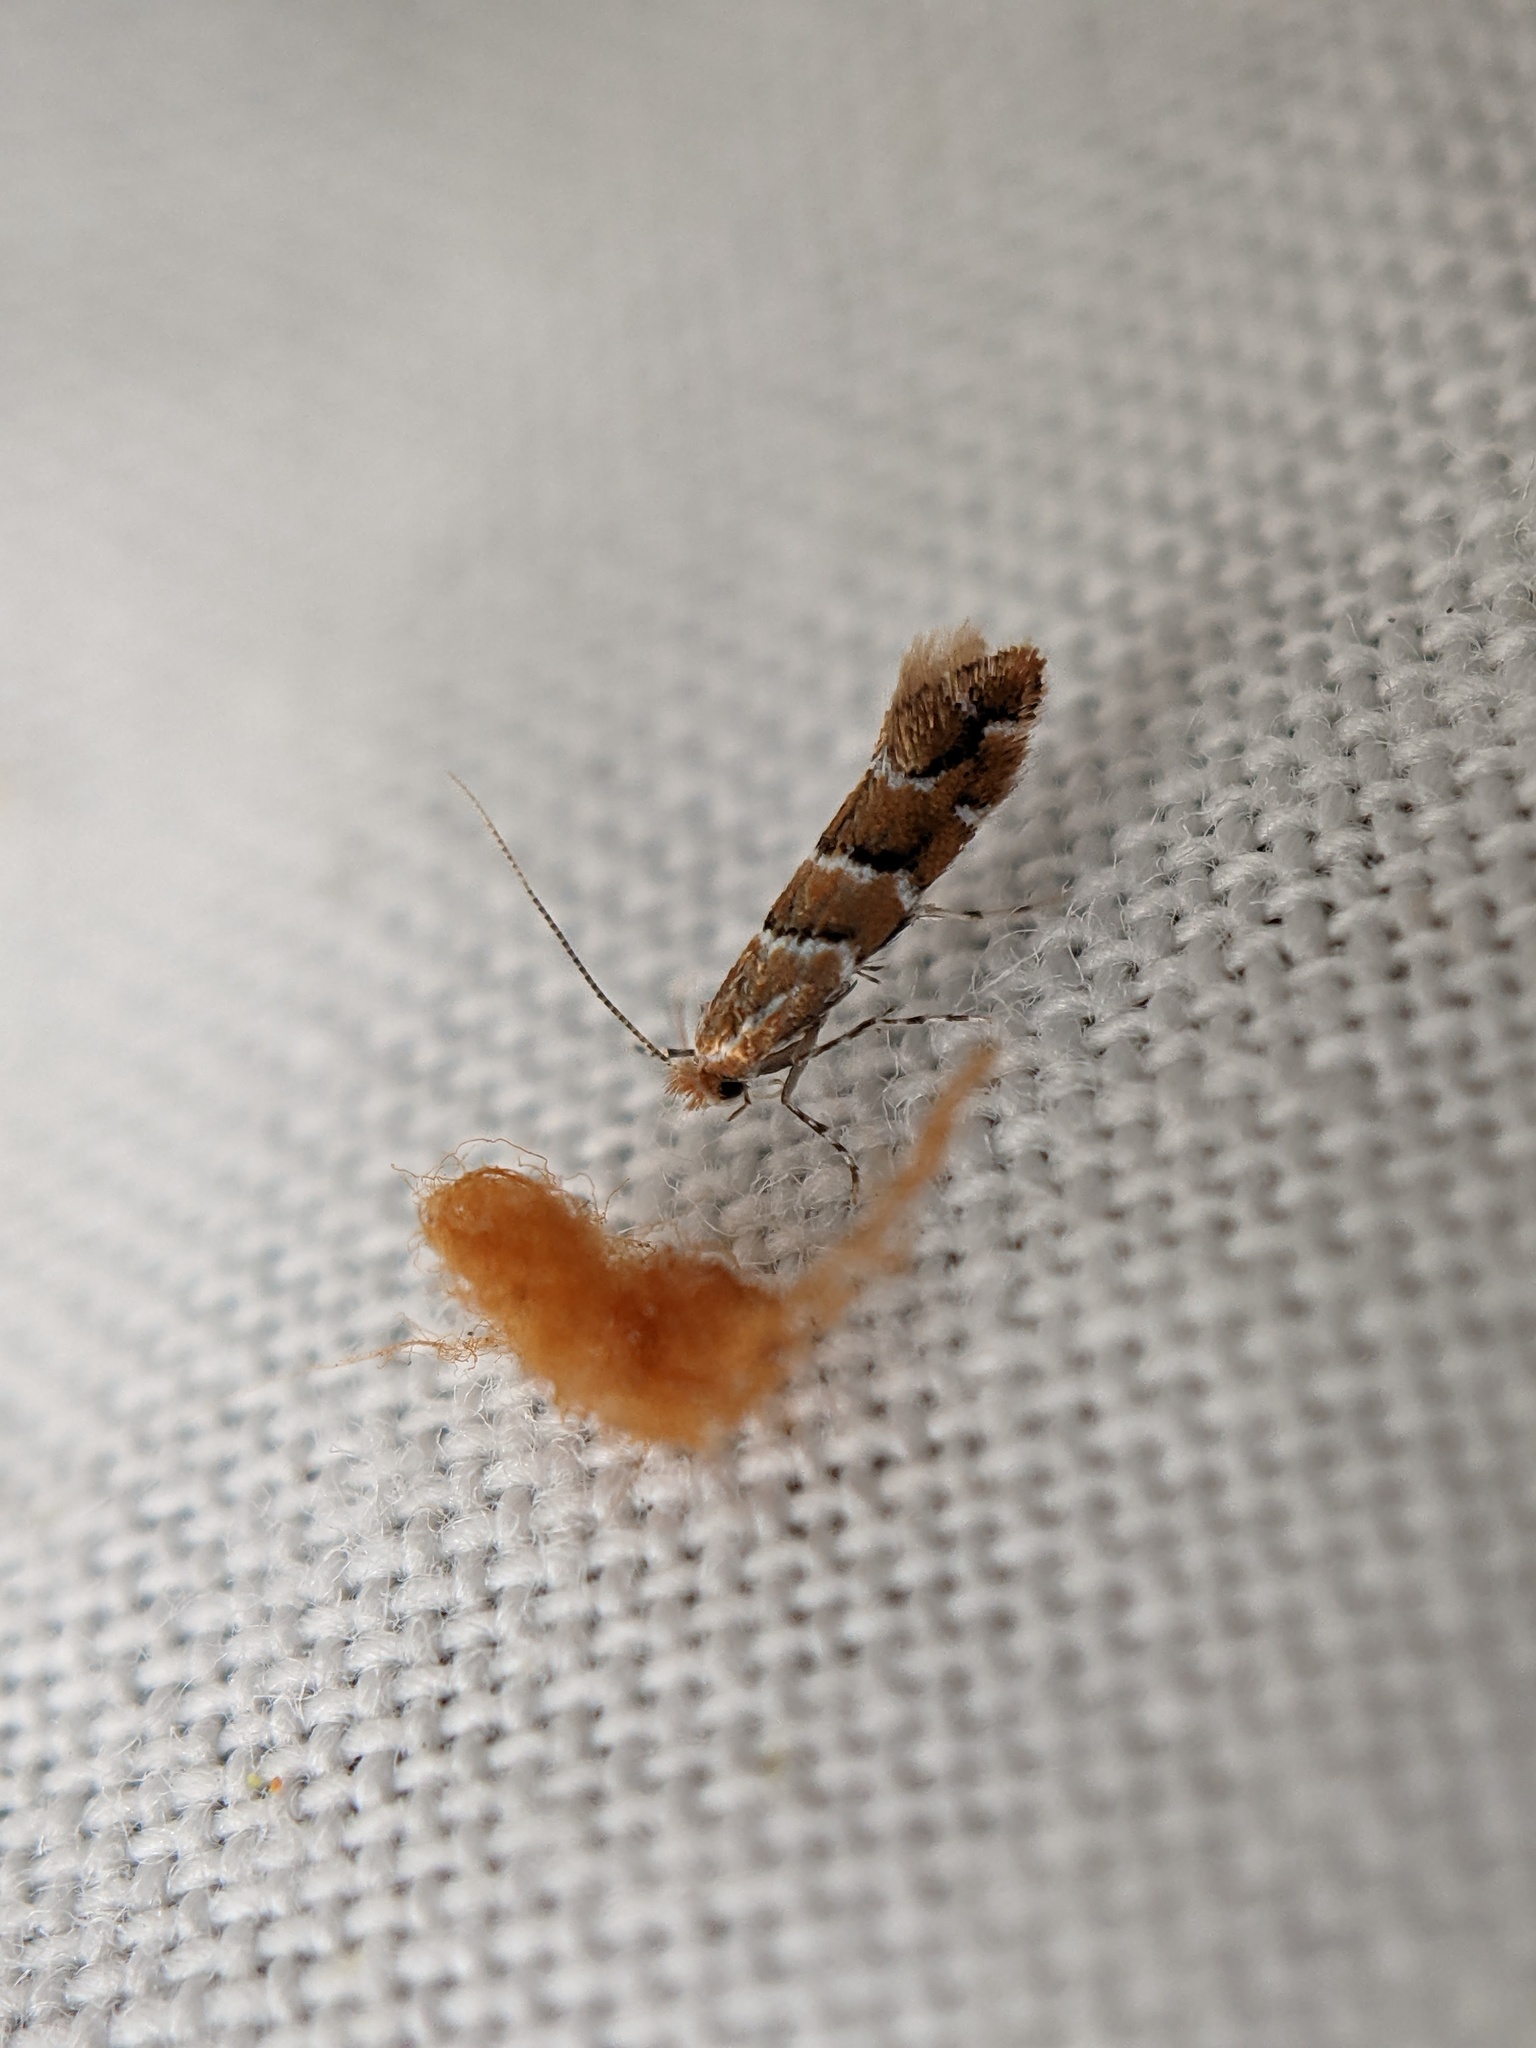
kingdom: Animalia
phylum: Arthropoda
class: Insecta
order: Lepidoptera
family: Gracillariidae
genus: Cameraria
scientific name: Cameraria ohridella
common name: Horse-chestnut leaf-miner
